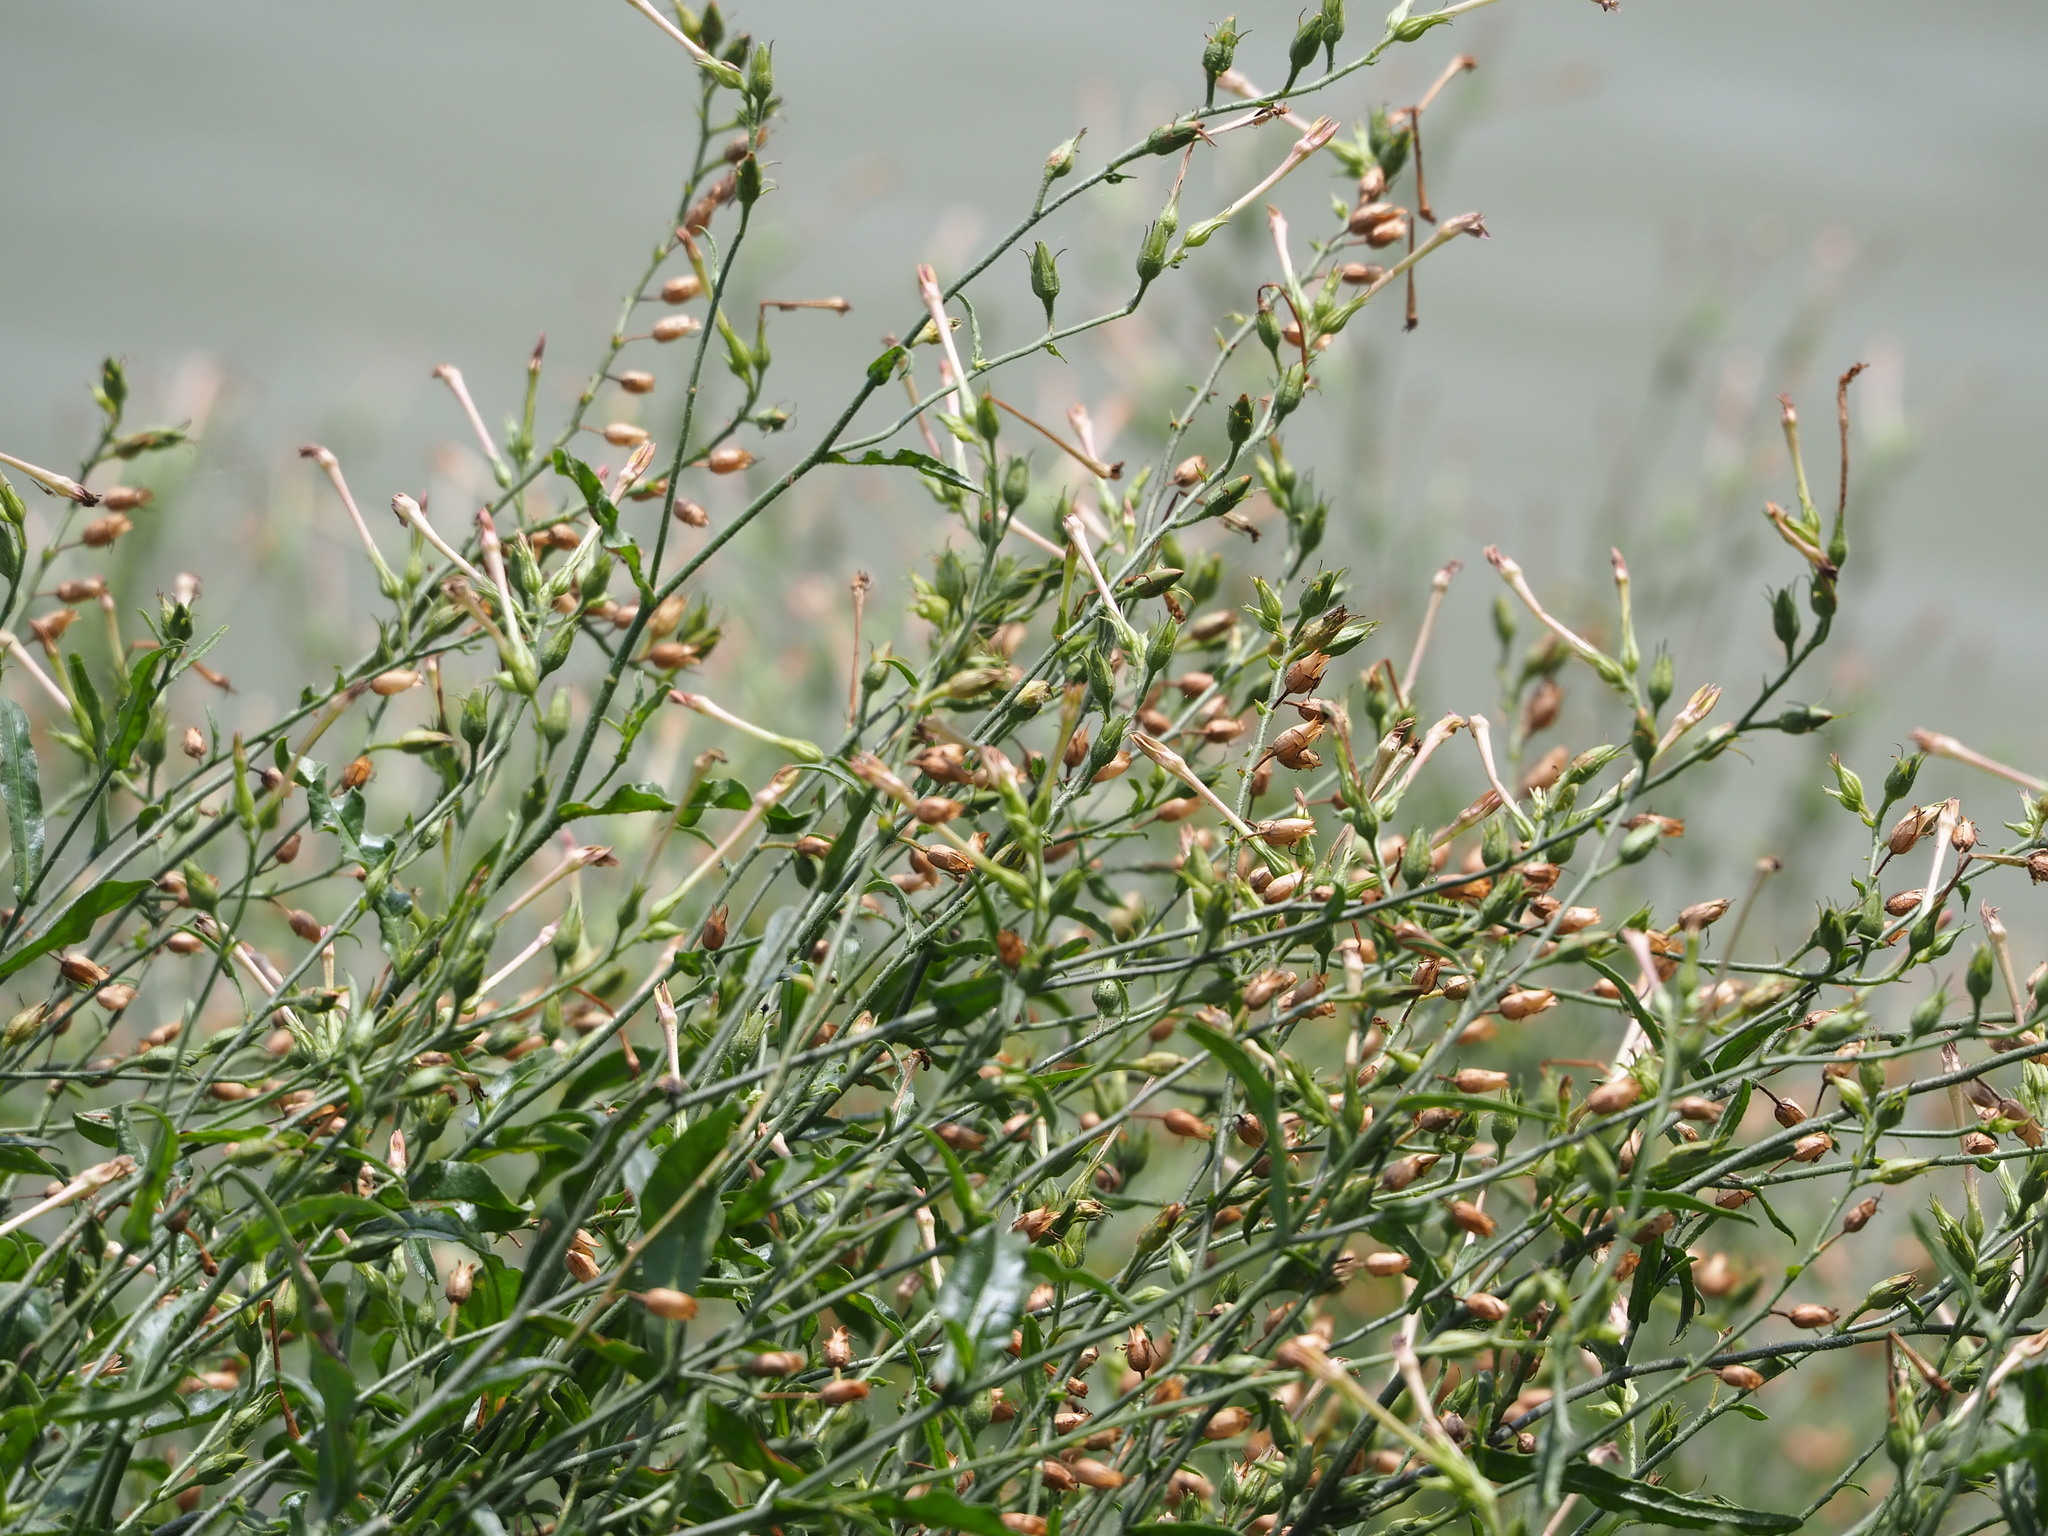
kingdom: Plantae
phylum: Tracheophyta
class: Magnoliopsida
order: Solanales
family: Solanaceae
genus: Nicotiana
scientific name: Nicotiana plumbaginifolia
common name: Tex-mex tobacco
